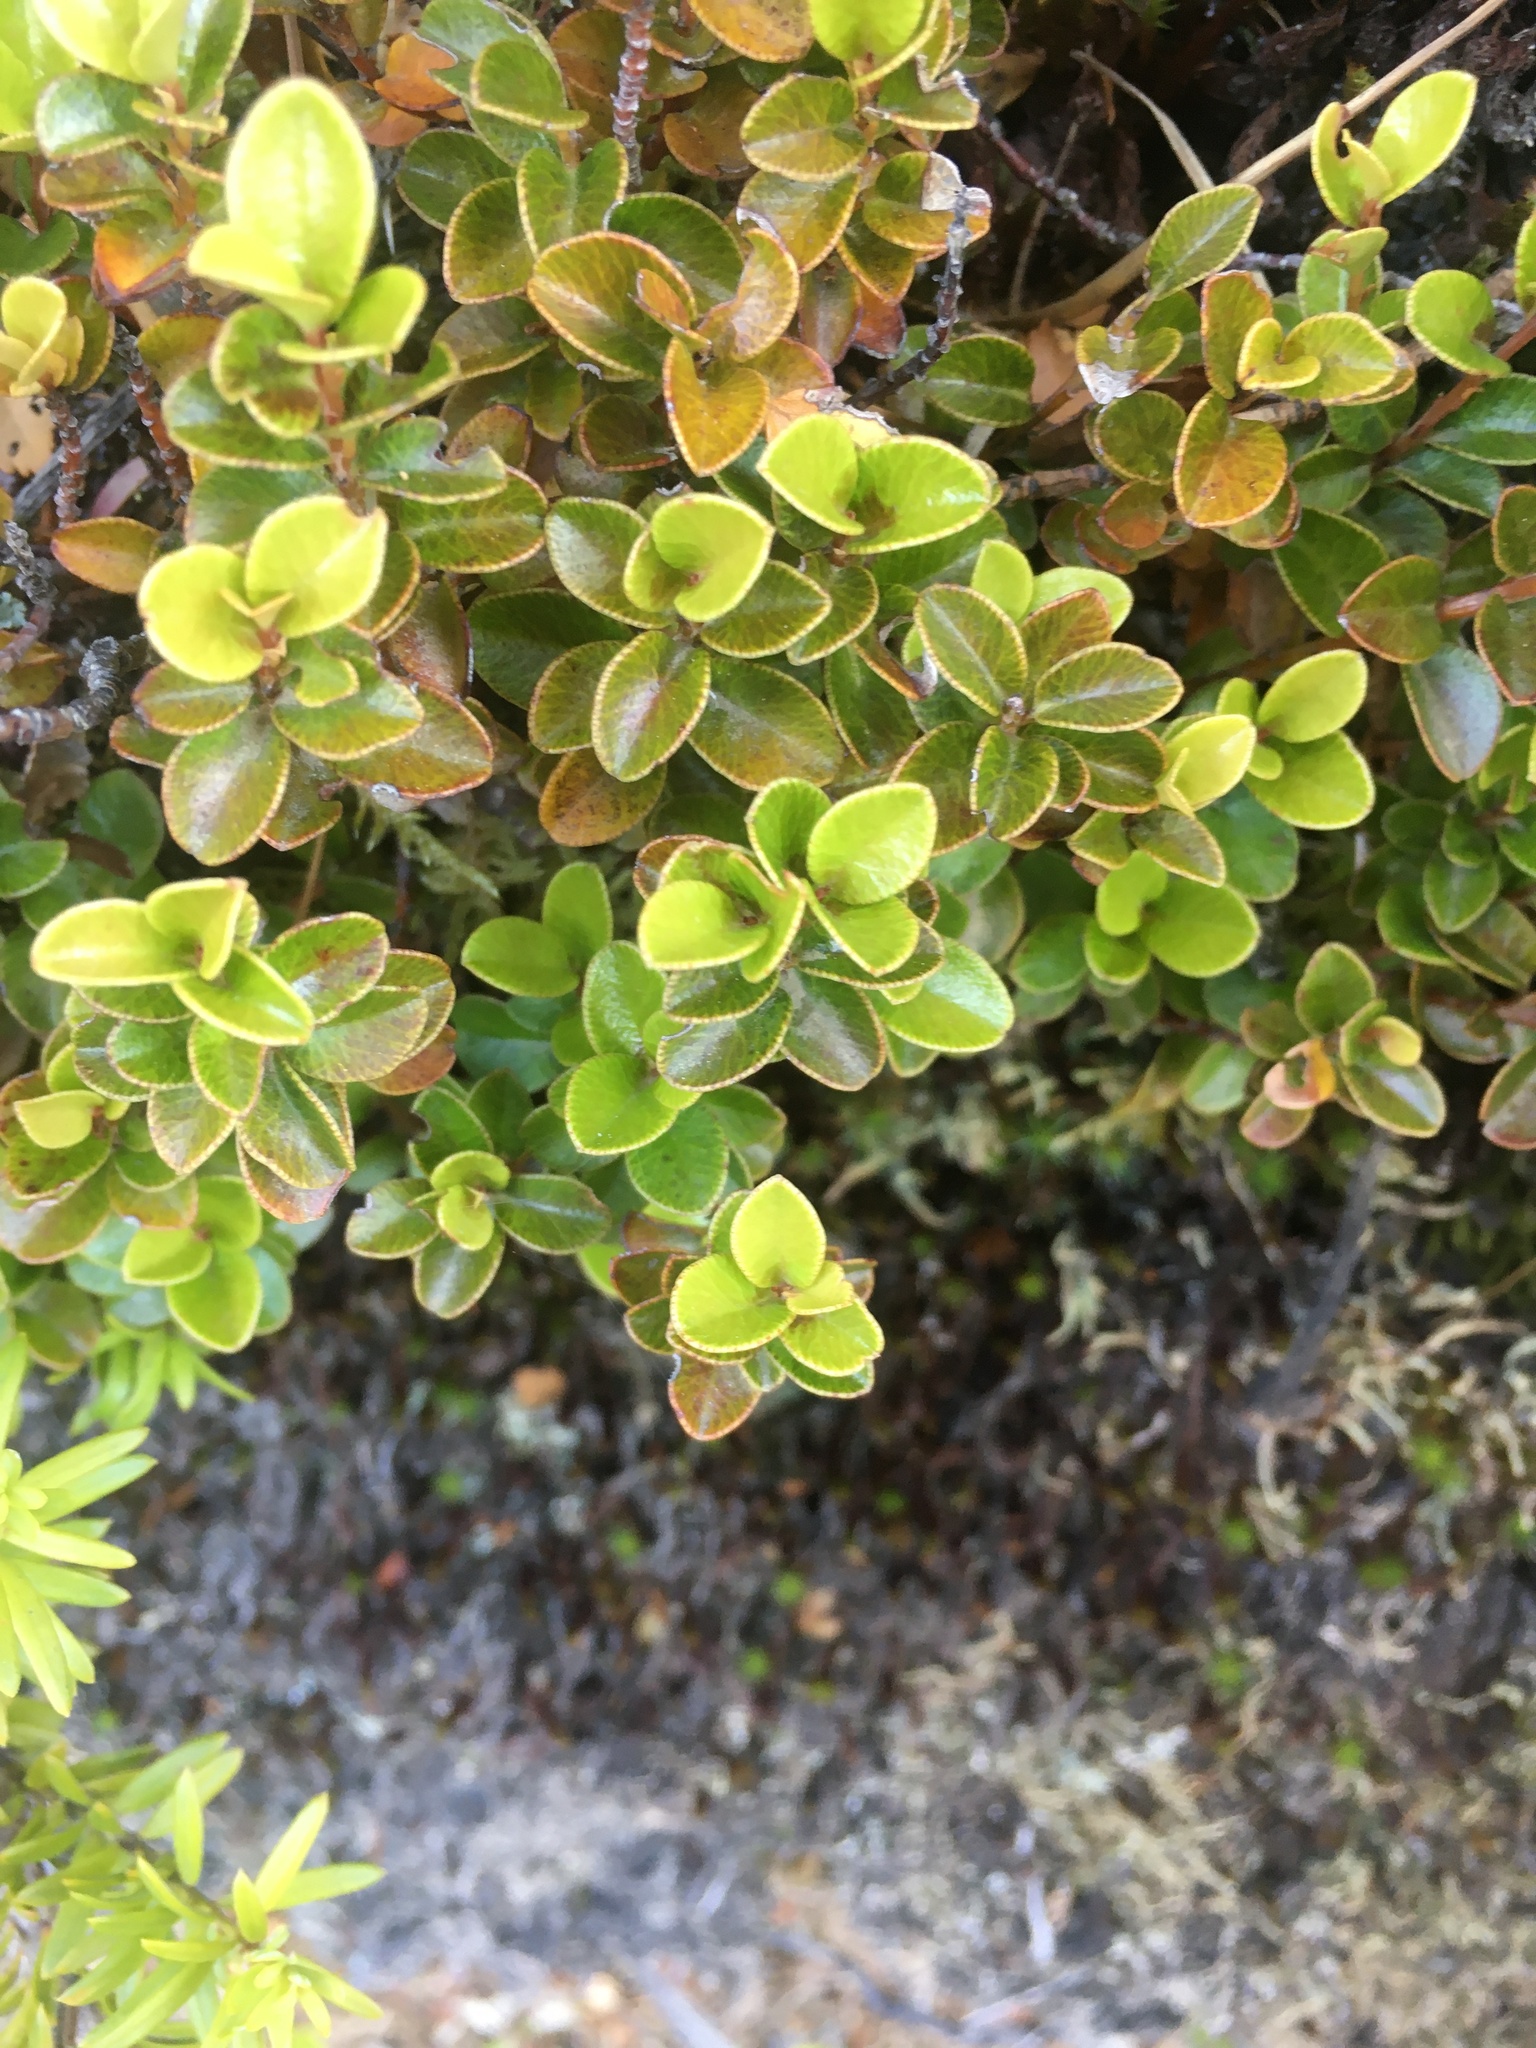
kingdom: Plantae
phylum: Tracheophyta
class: Magnoliopsida
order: Ericales
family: Primulaceae
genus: Myrsine
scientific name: Myrsine nummularia
